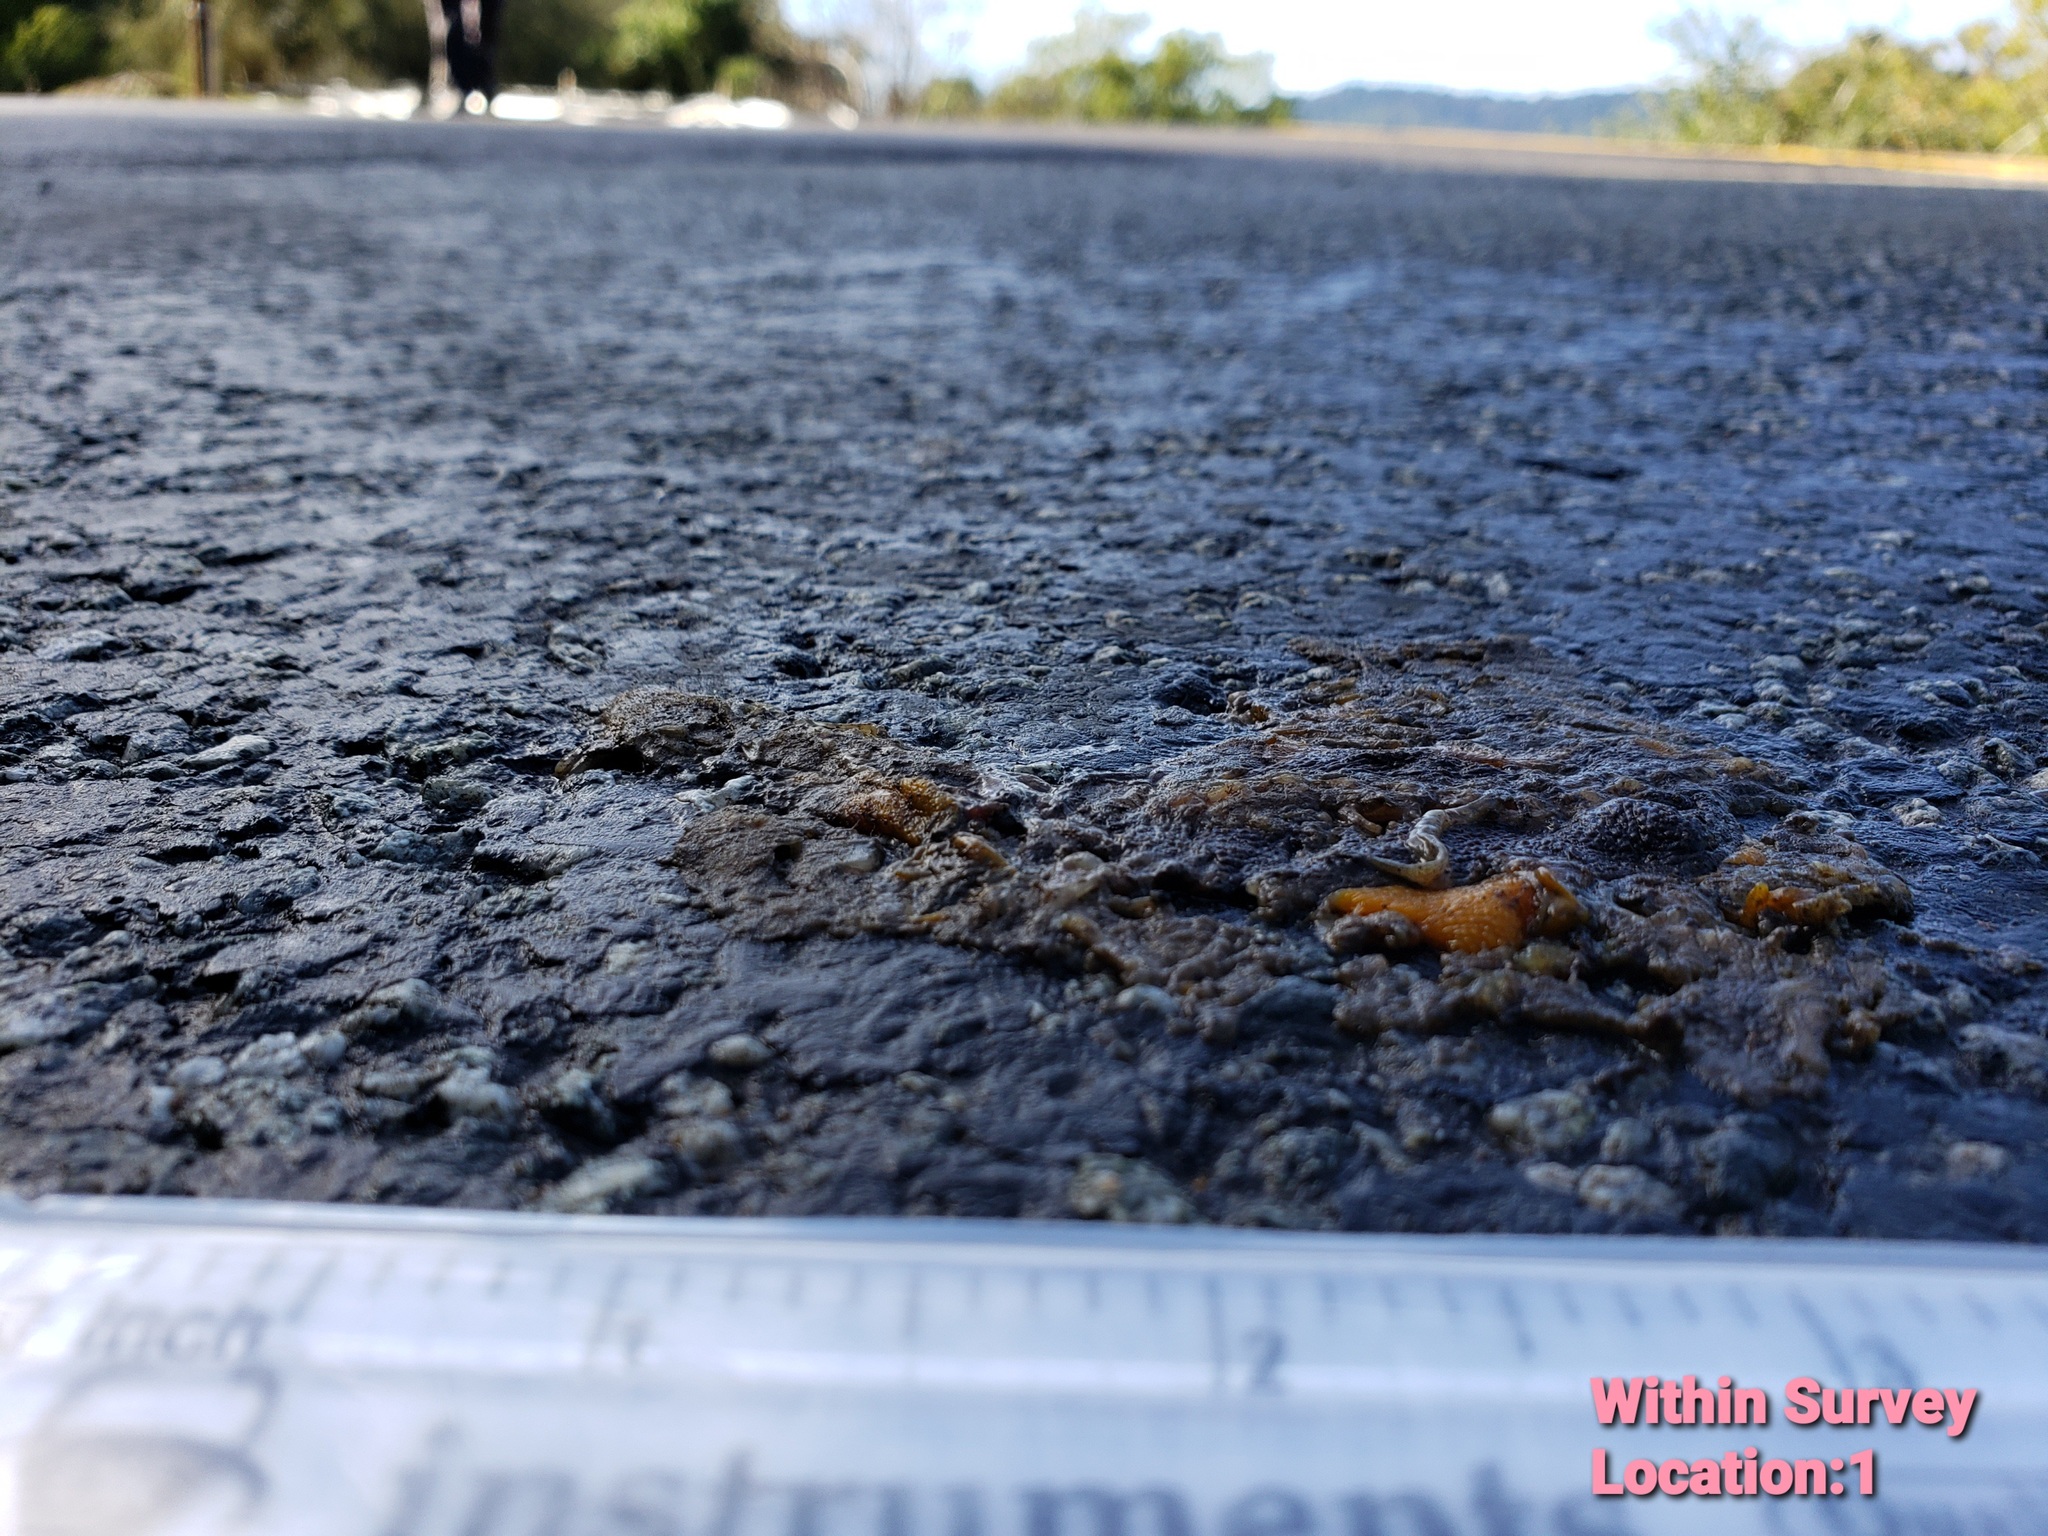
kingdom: Animalia
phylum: Chordata
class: Amphibia
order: Caudata
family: Salamandridae
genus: Taricha
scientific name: Taricha
